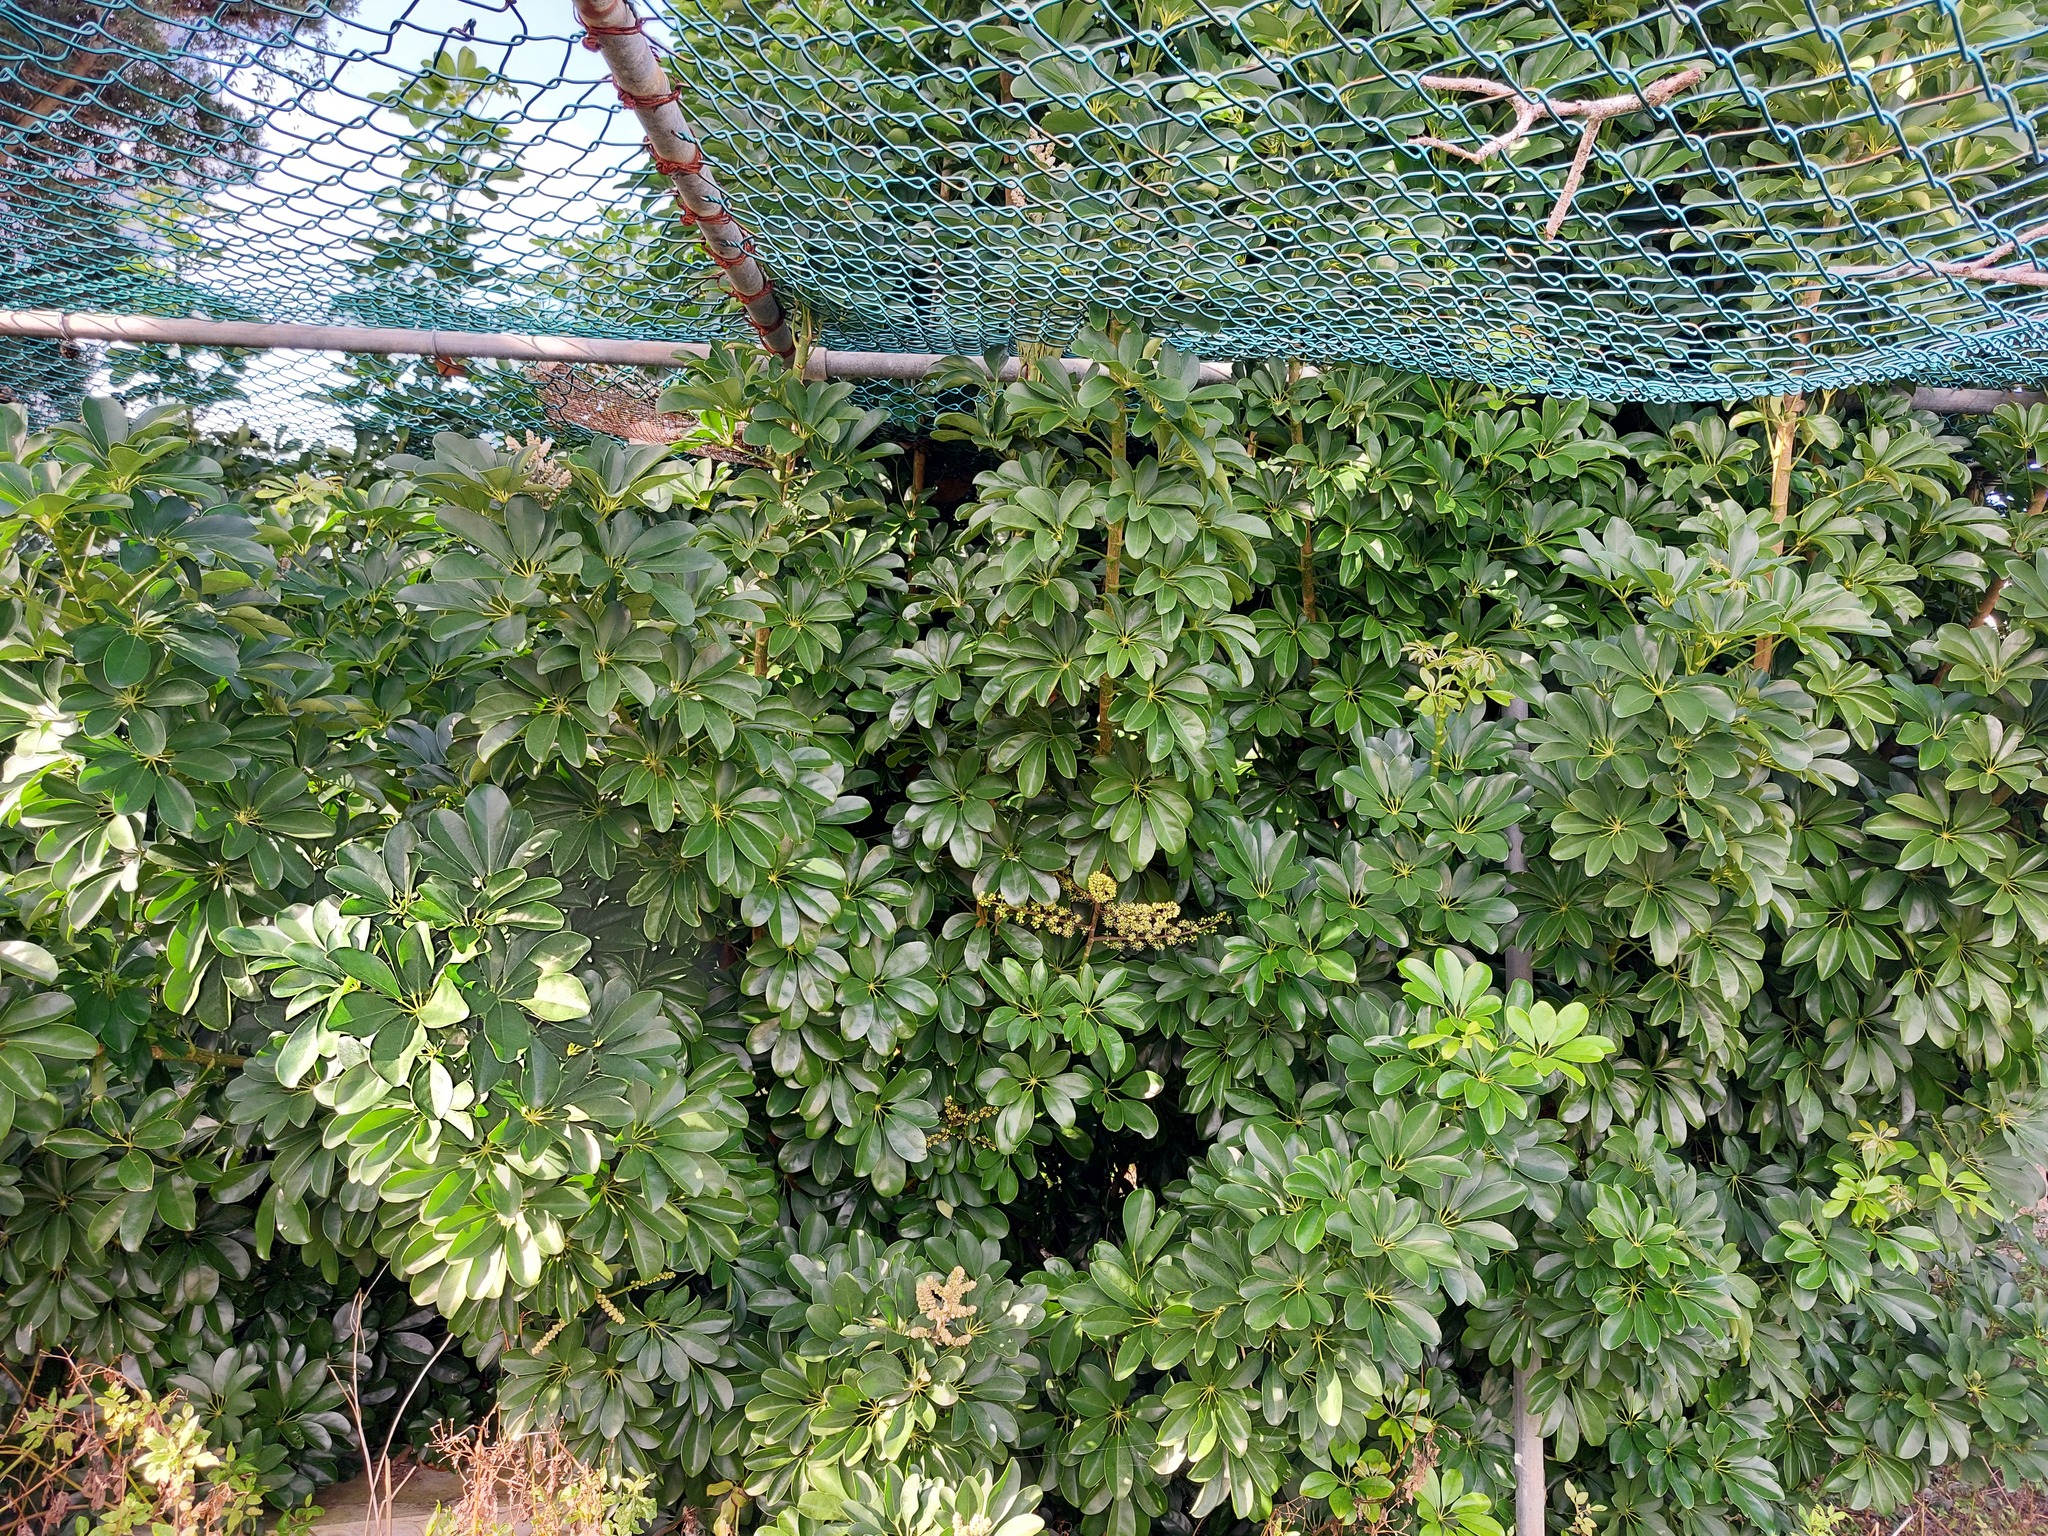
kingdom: Plantae
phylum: Tracheophyta
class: Magnoliopsida
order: Apiales
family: Araliaceae
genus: Heptapleurum
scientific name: Heptapleurum arboricola
